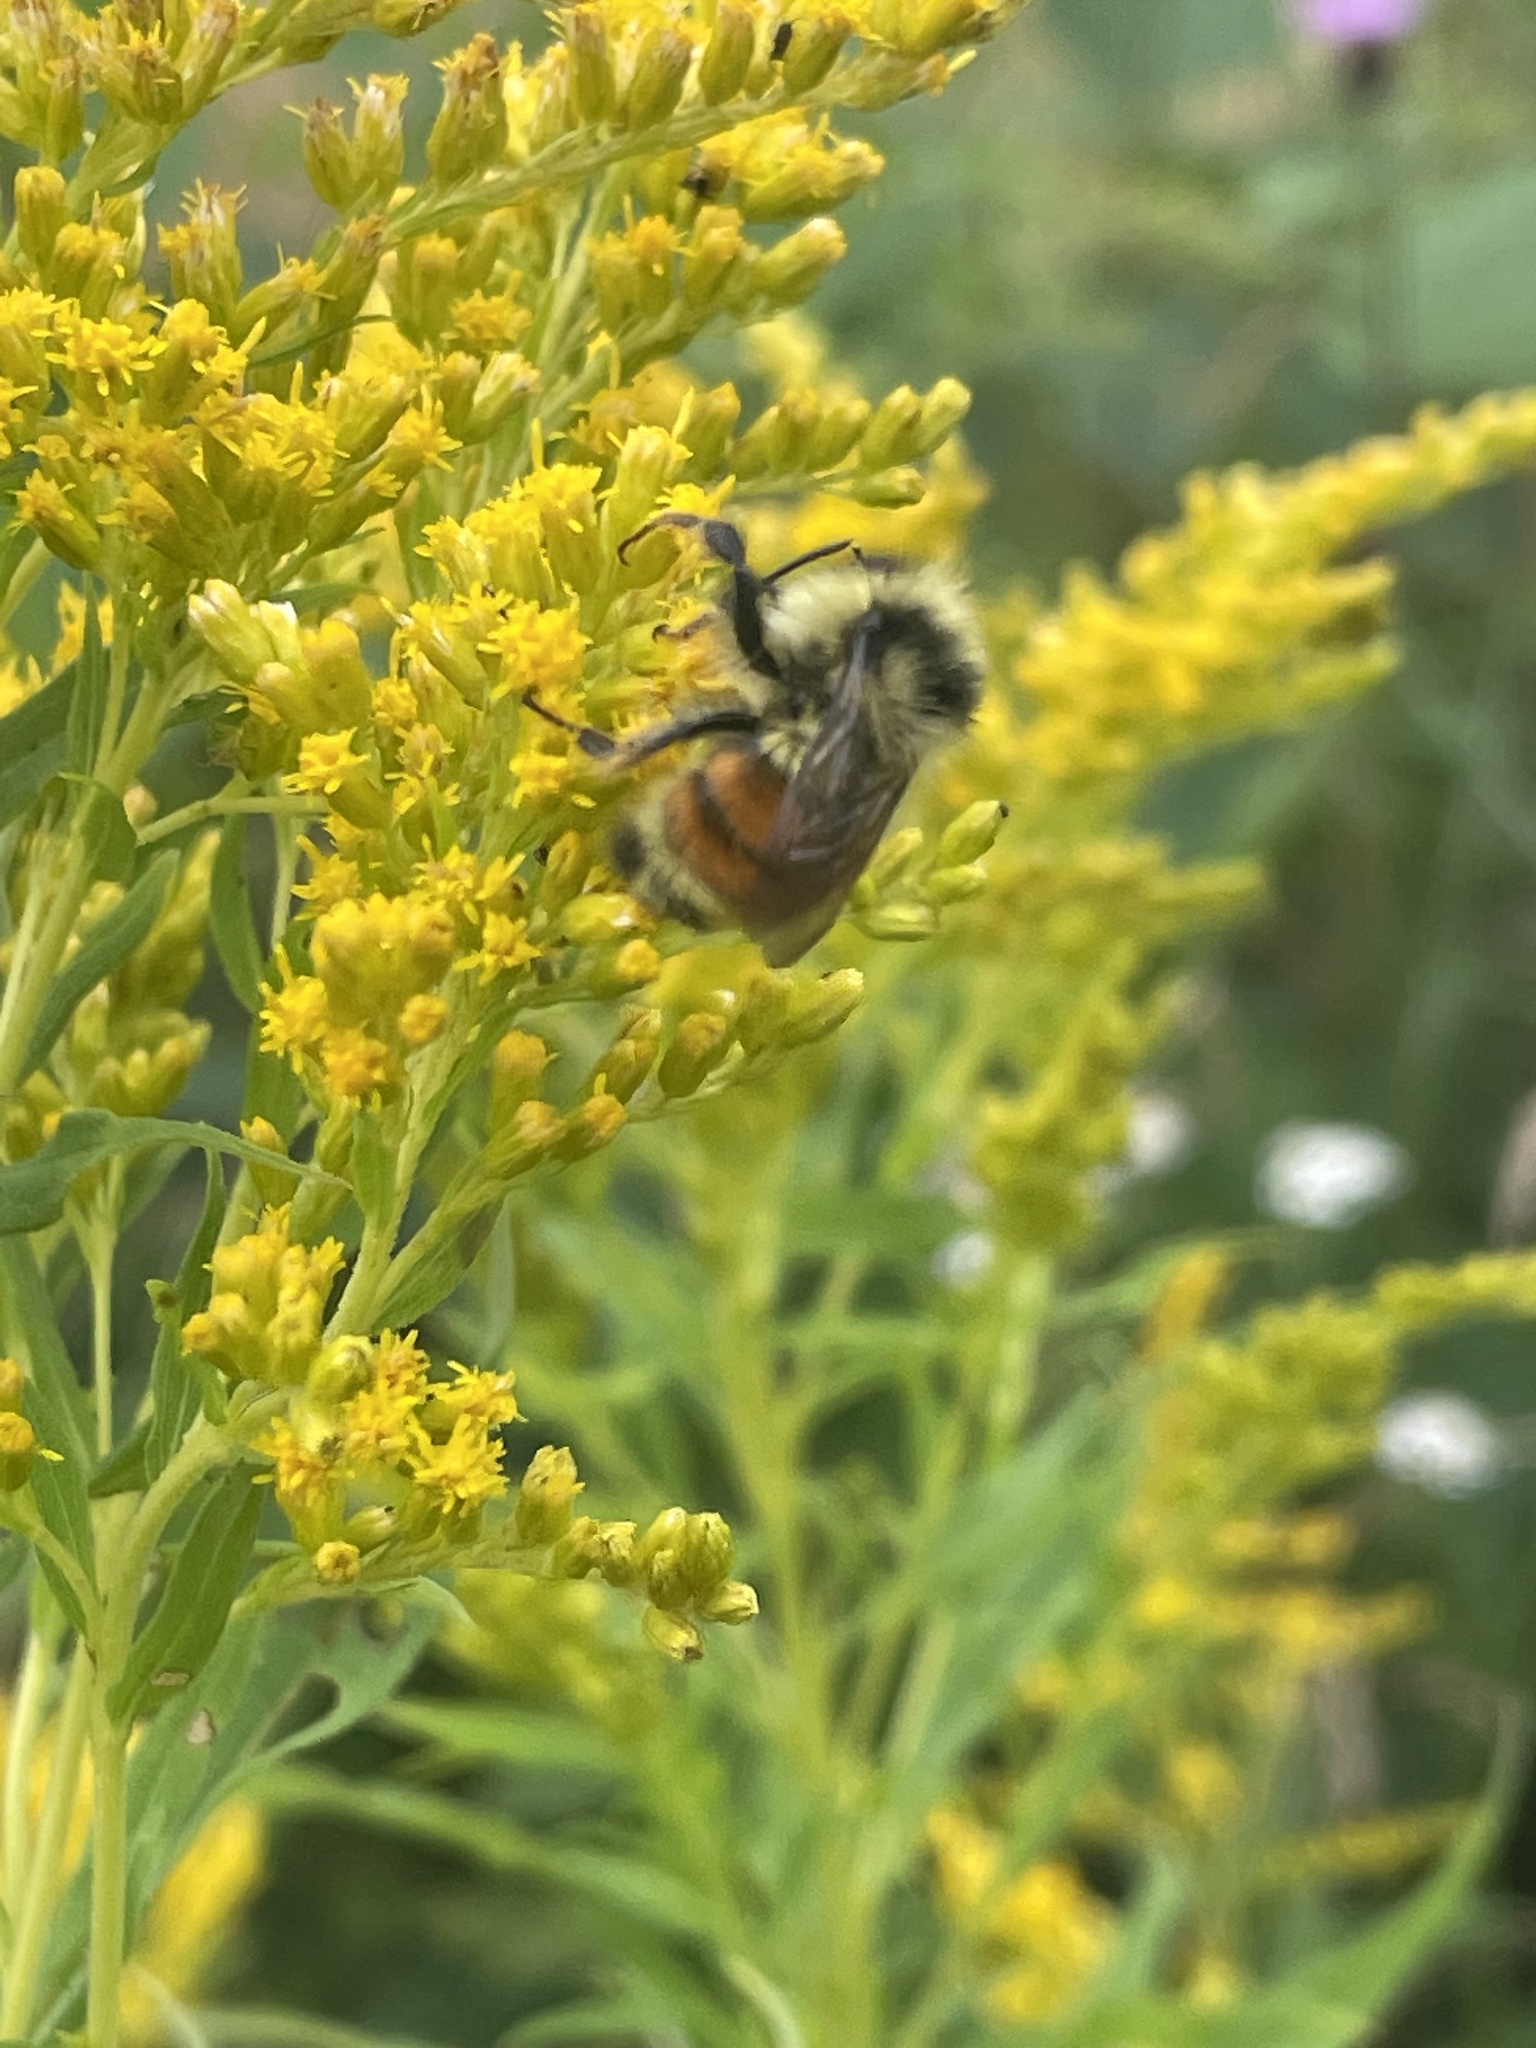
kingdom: Animalia
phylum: Arthropoda
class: Insecta
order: Hymenoptera
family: Apidae
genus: Bombus
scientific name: Bombus ternarius
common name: Tri-colored bumble bee
